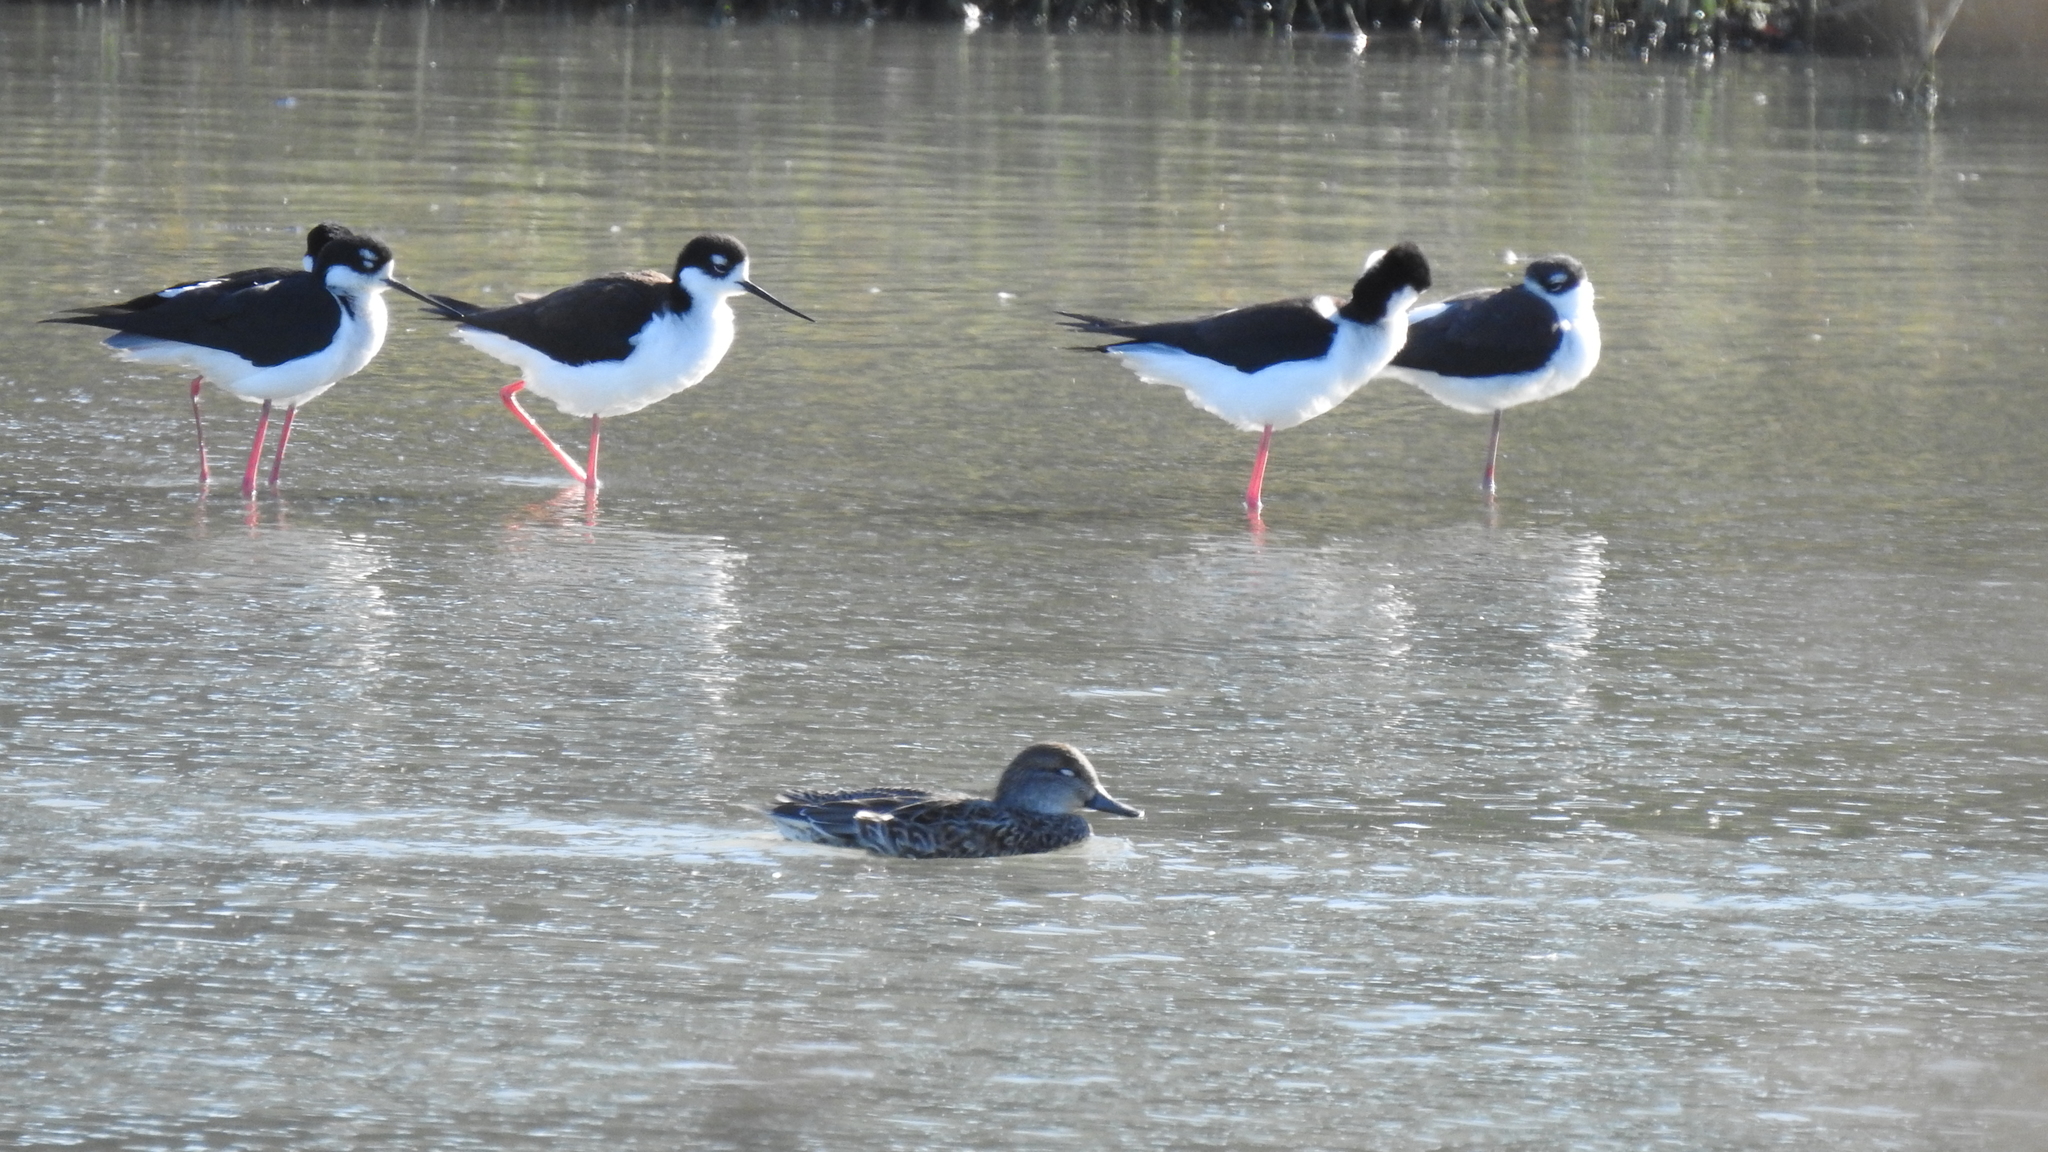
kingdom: Animalia
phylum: Chordata
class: Aves
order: Anseriformes
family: Anatidae
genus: Anas
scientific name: Anas crecca
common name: Eurasian teal
